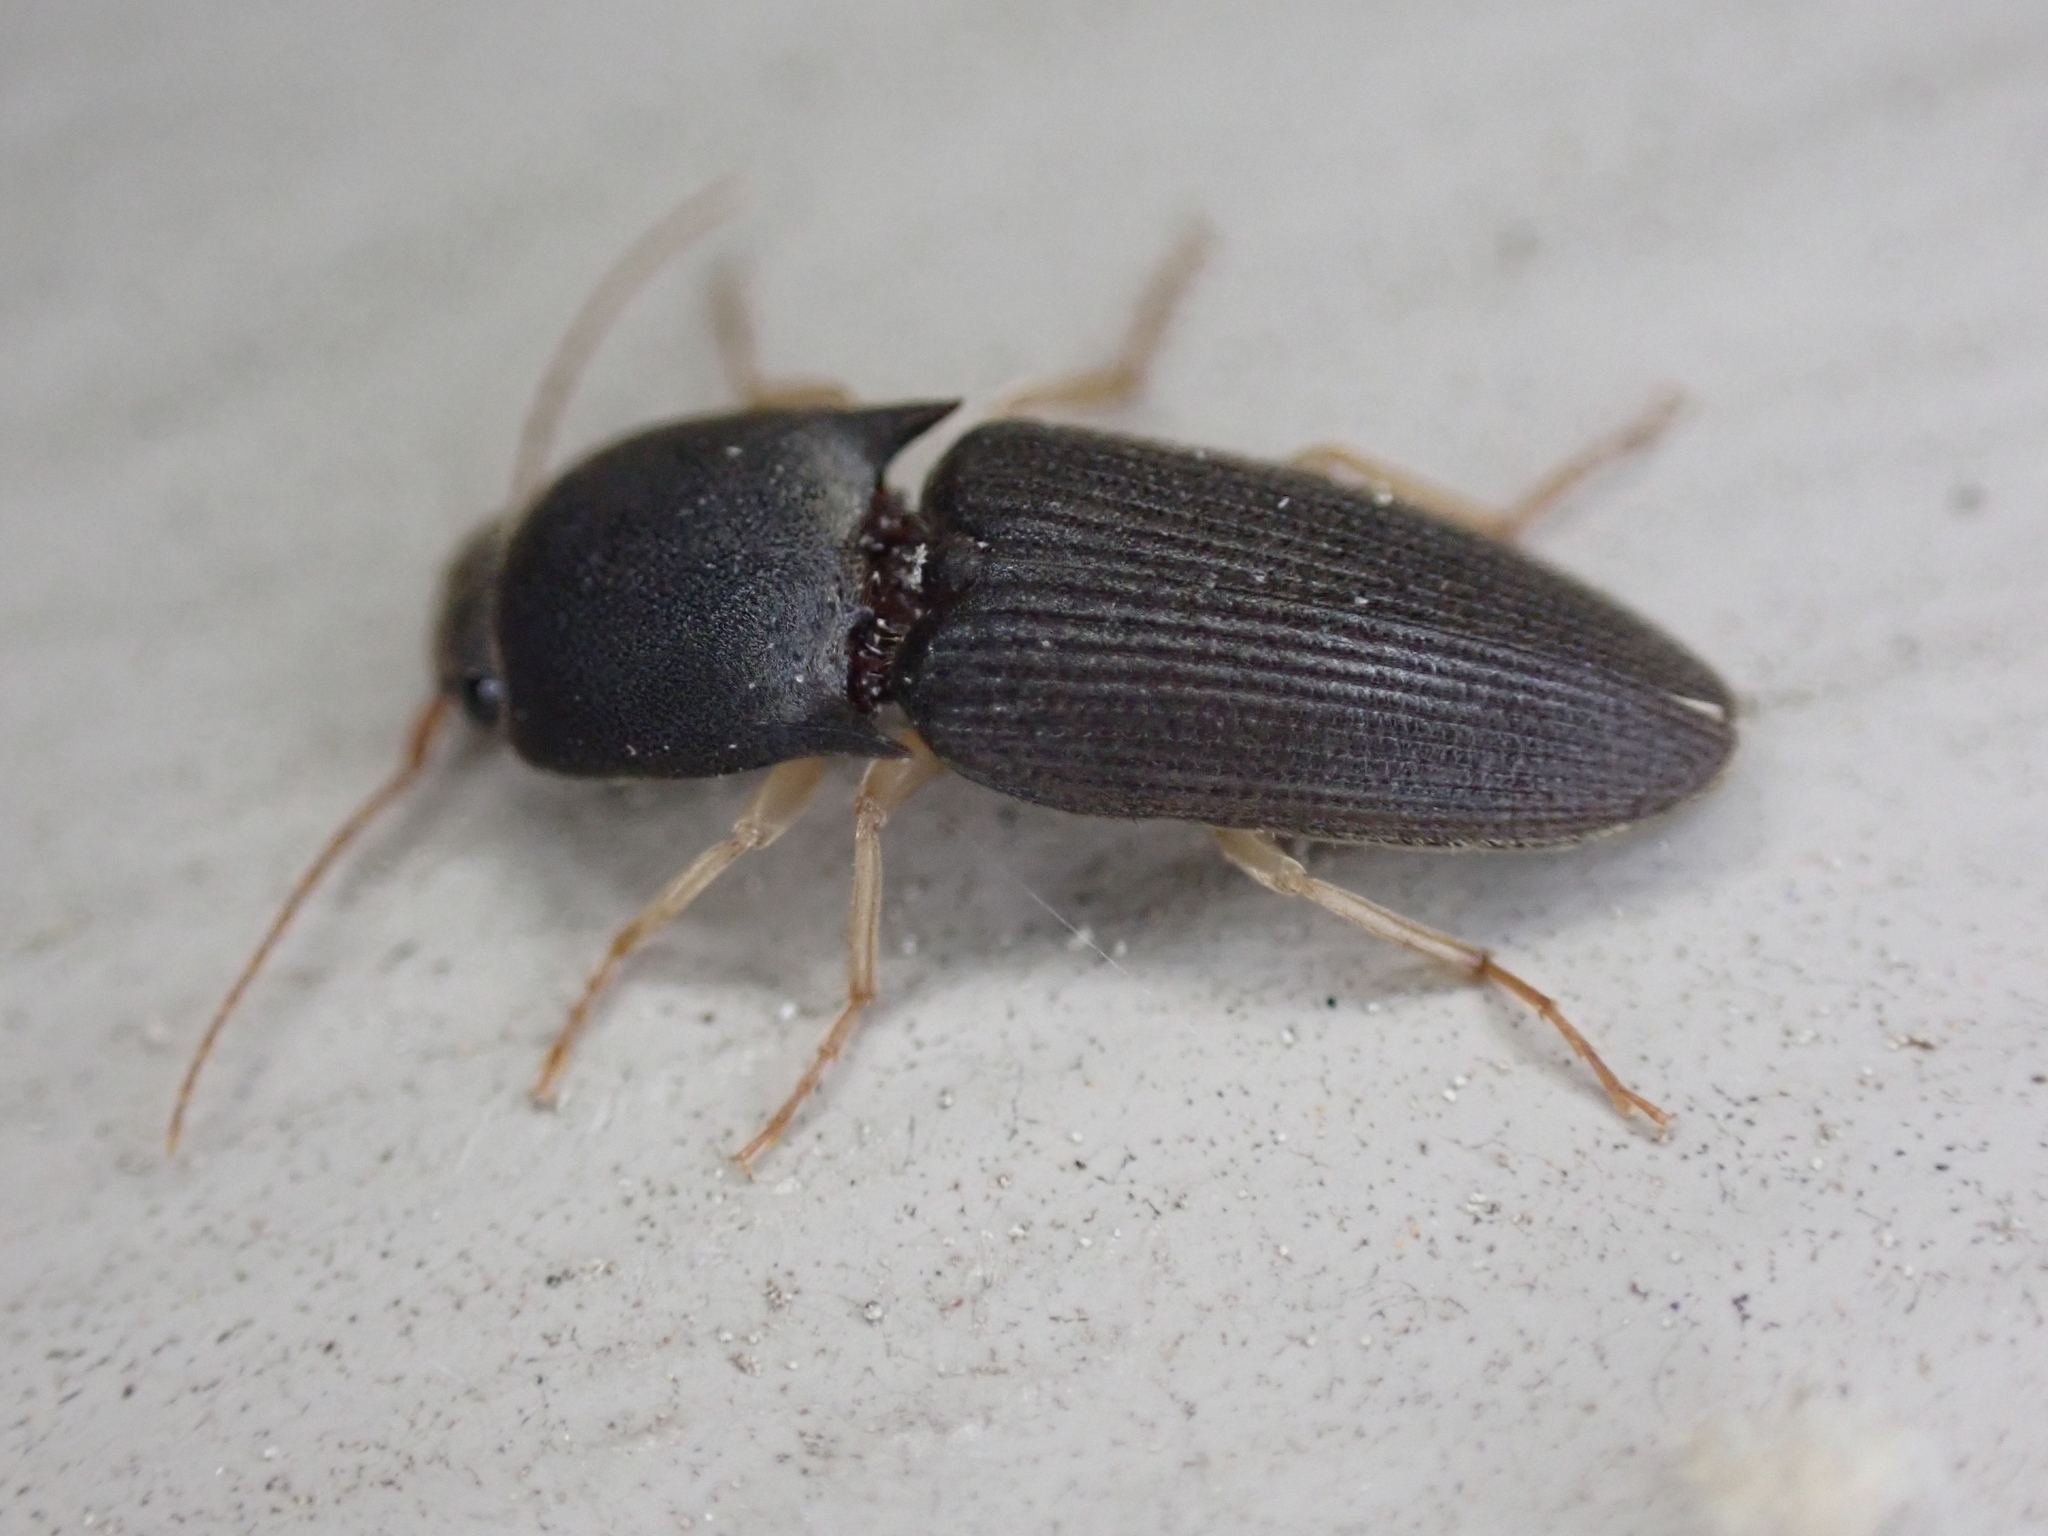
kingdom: Animalia
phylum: Arthropoda
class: Insecta
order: Coleoptera
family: Elateridae
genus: Heteroderes
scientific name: Heteroderes amplicollis
